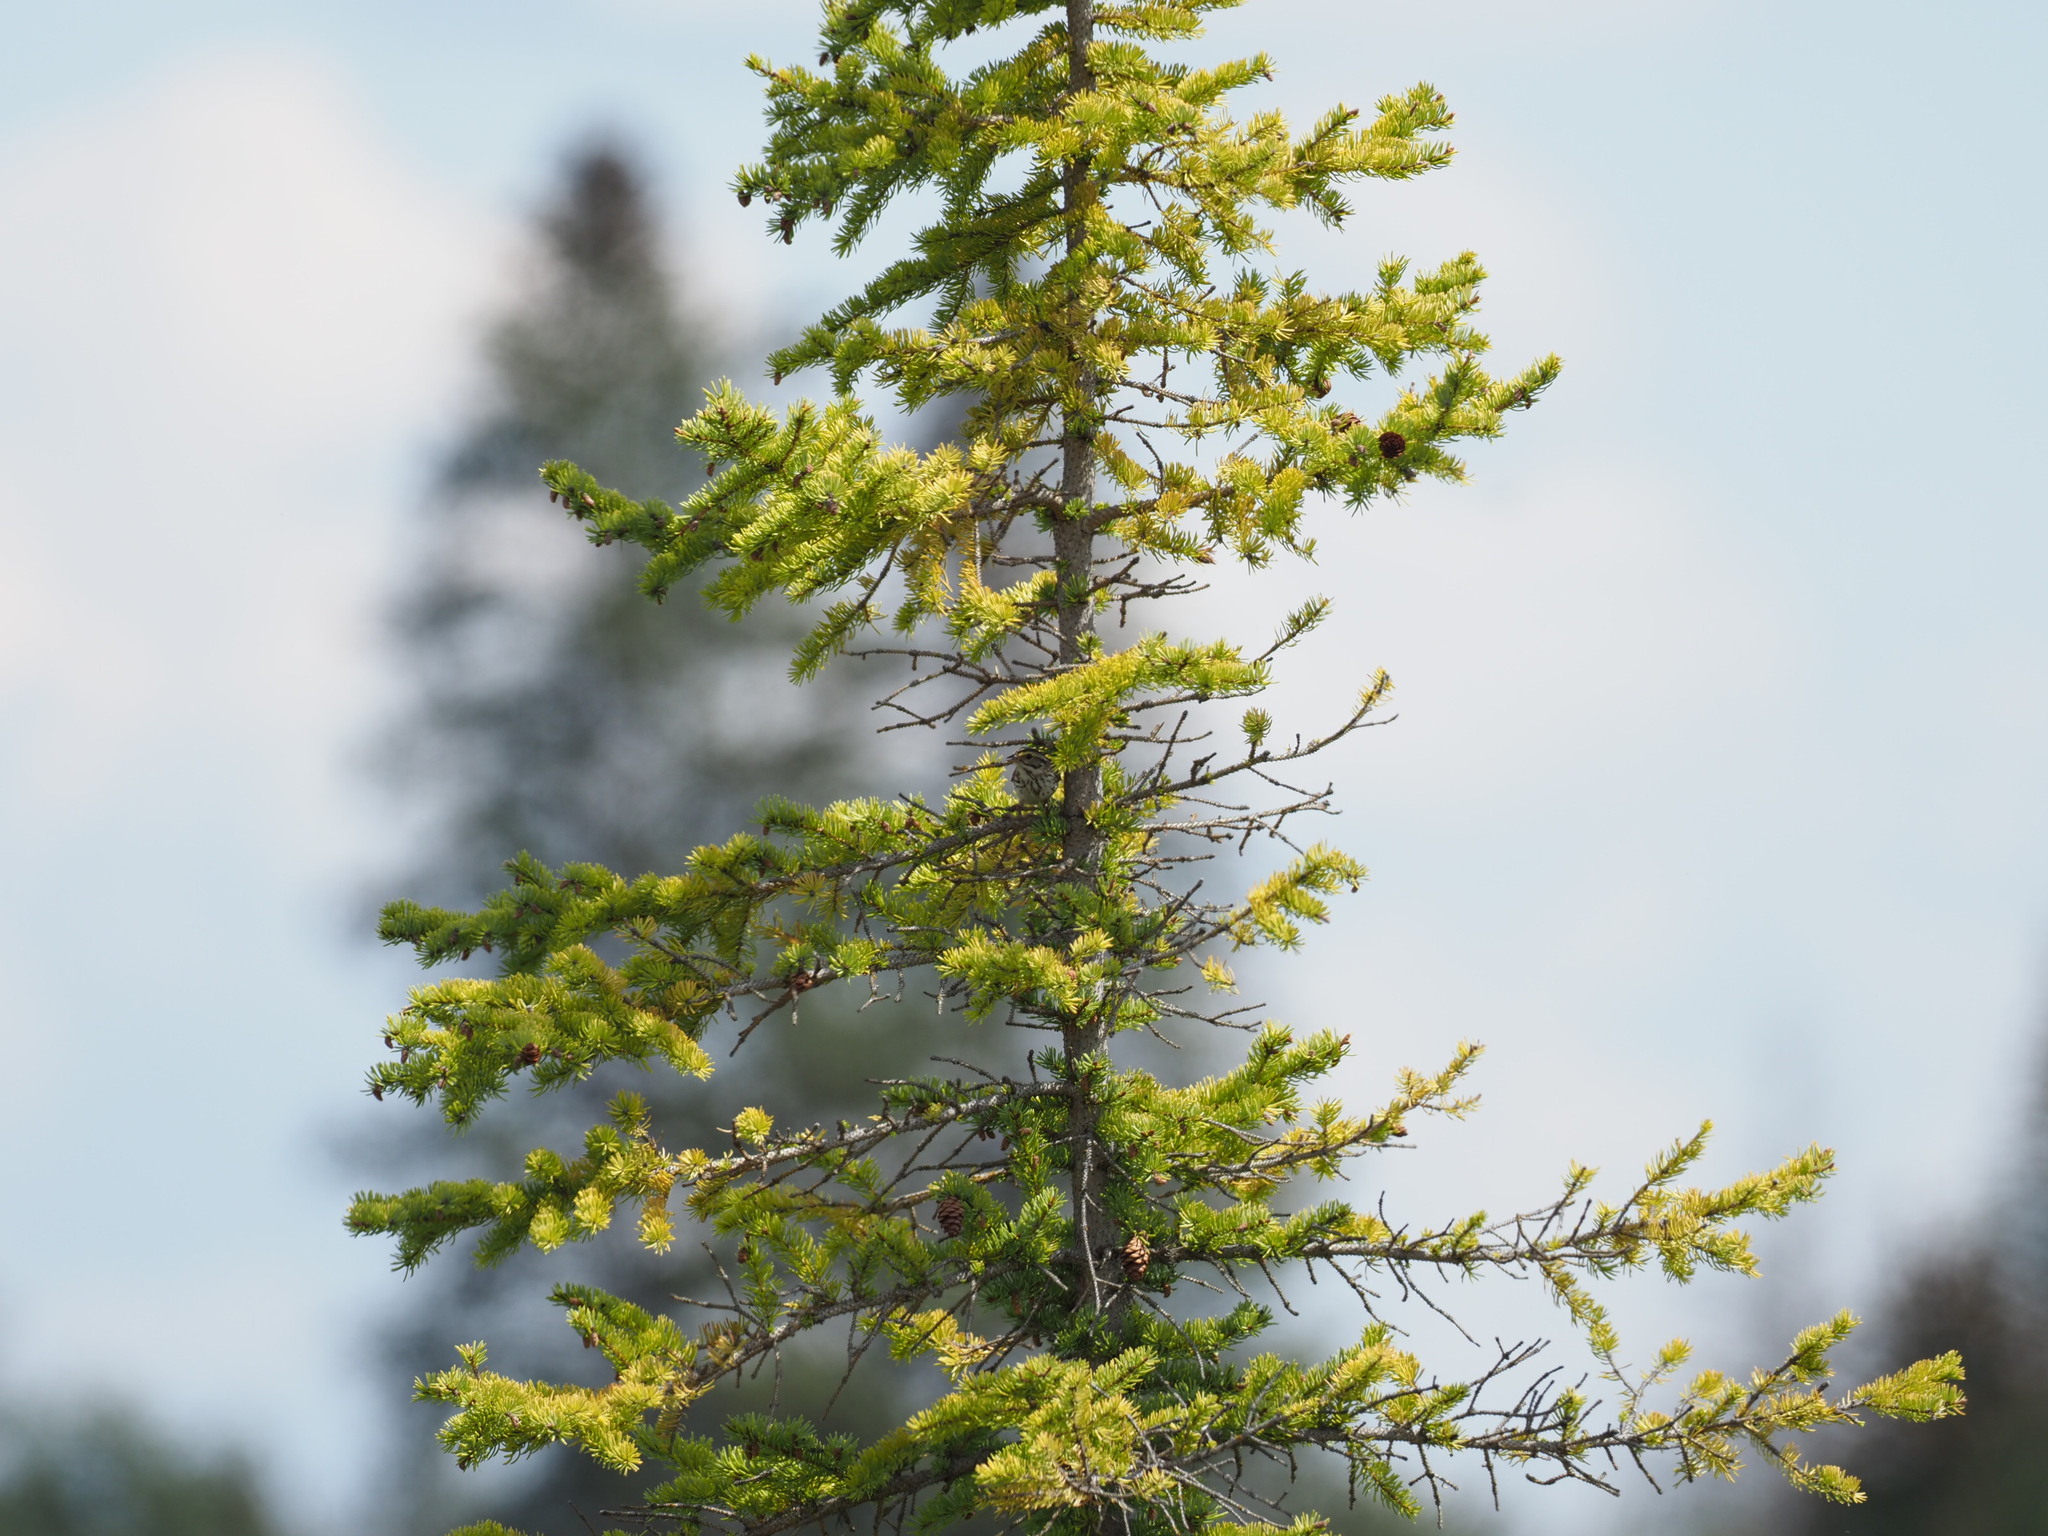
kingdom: Animalia
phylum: Chordata
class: Aves
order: Passeriformes
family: Passerellidae
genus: Passerculus
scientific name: Passerculus sandwichensis
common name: Savannah sparrow
